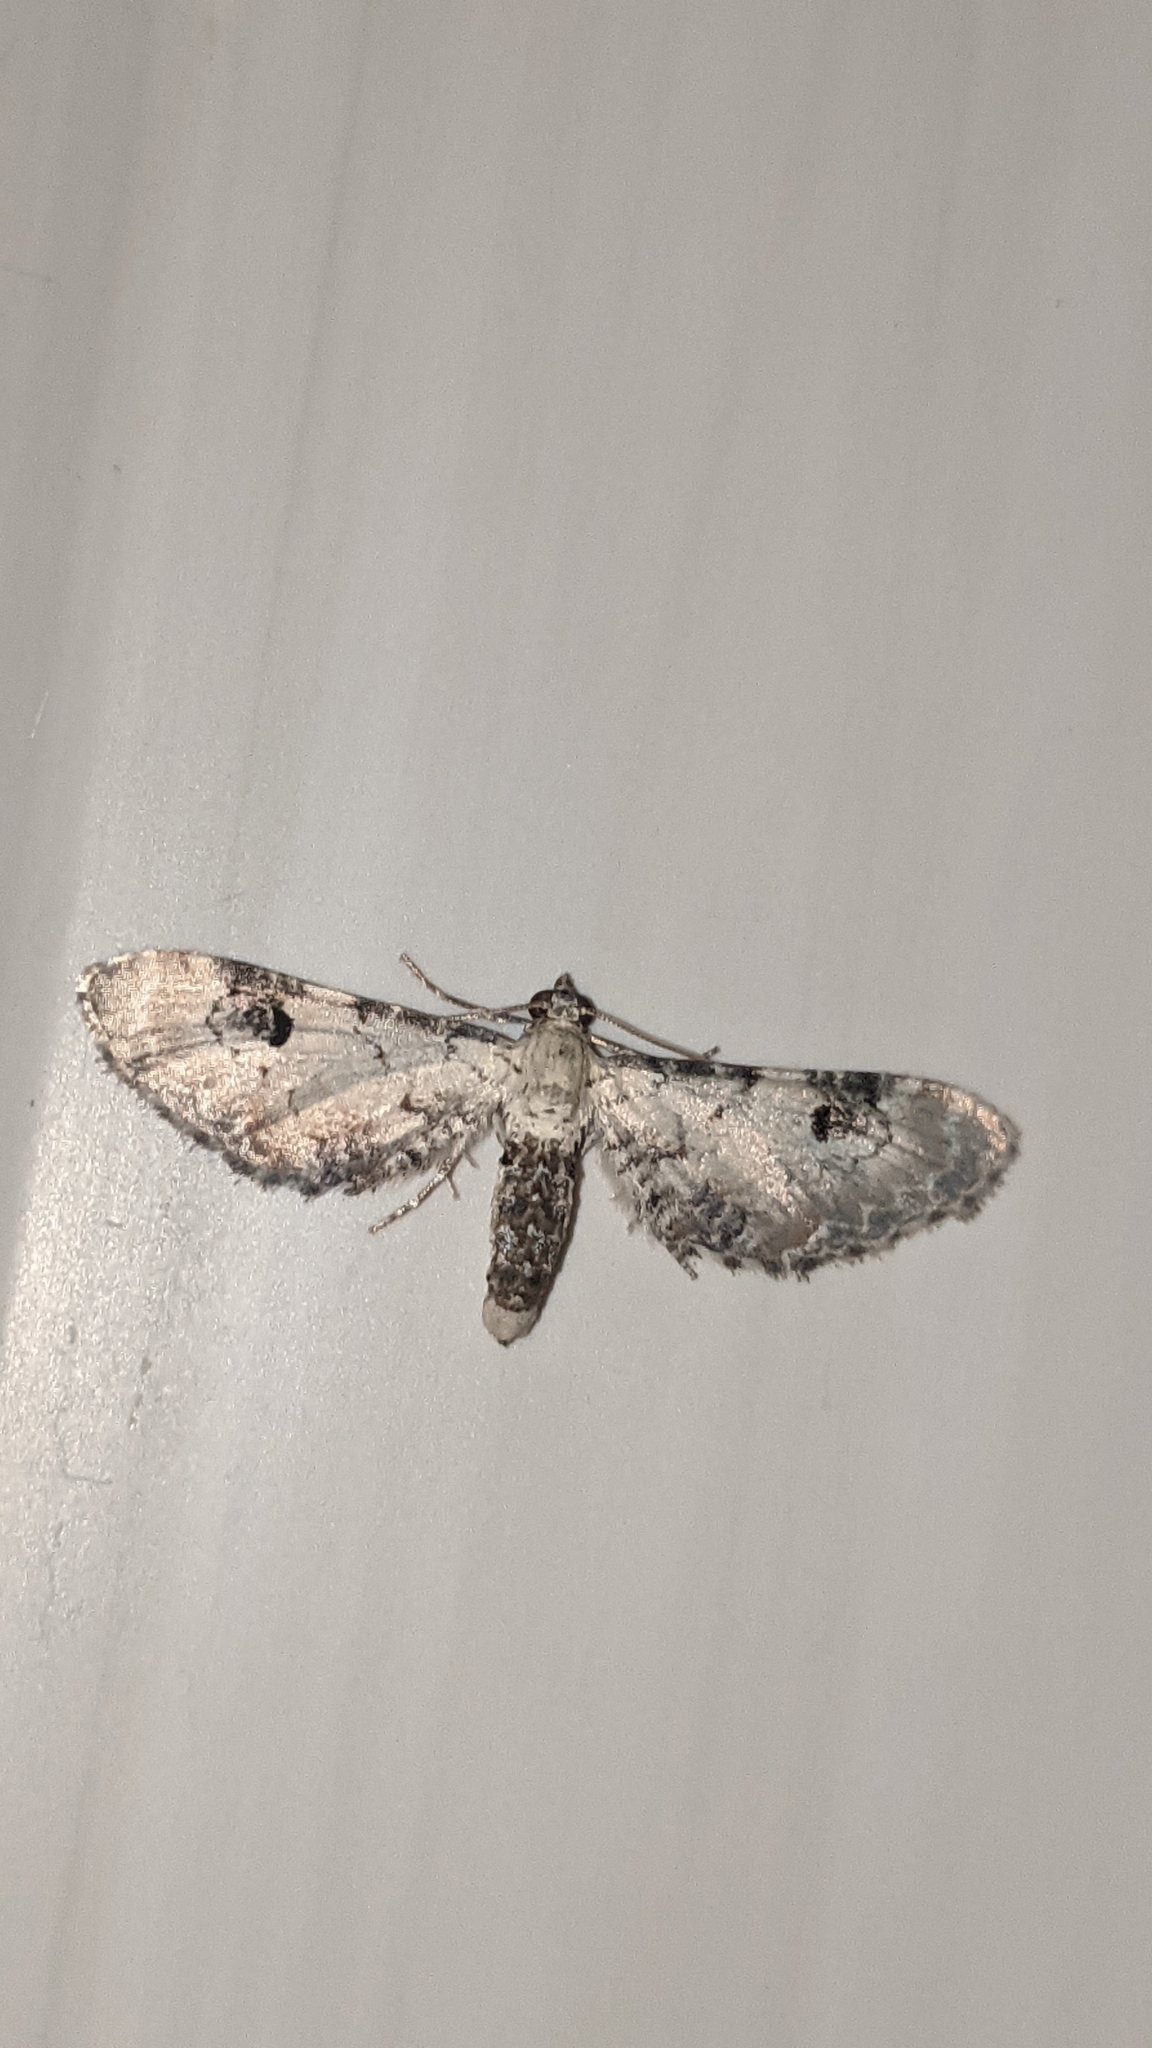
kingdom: Animalia
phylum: Arthropoda
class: Insecta
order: Lepidoptera
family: Geometridae
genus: Eupithecia
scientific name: Eupithecia centaureata
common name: Lime-speck pug
